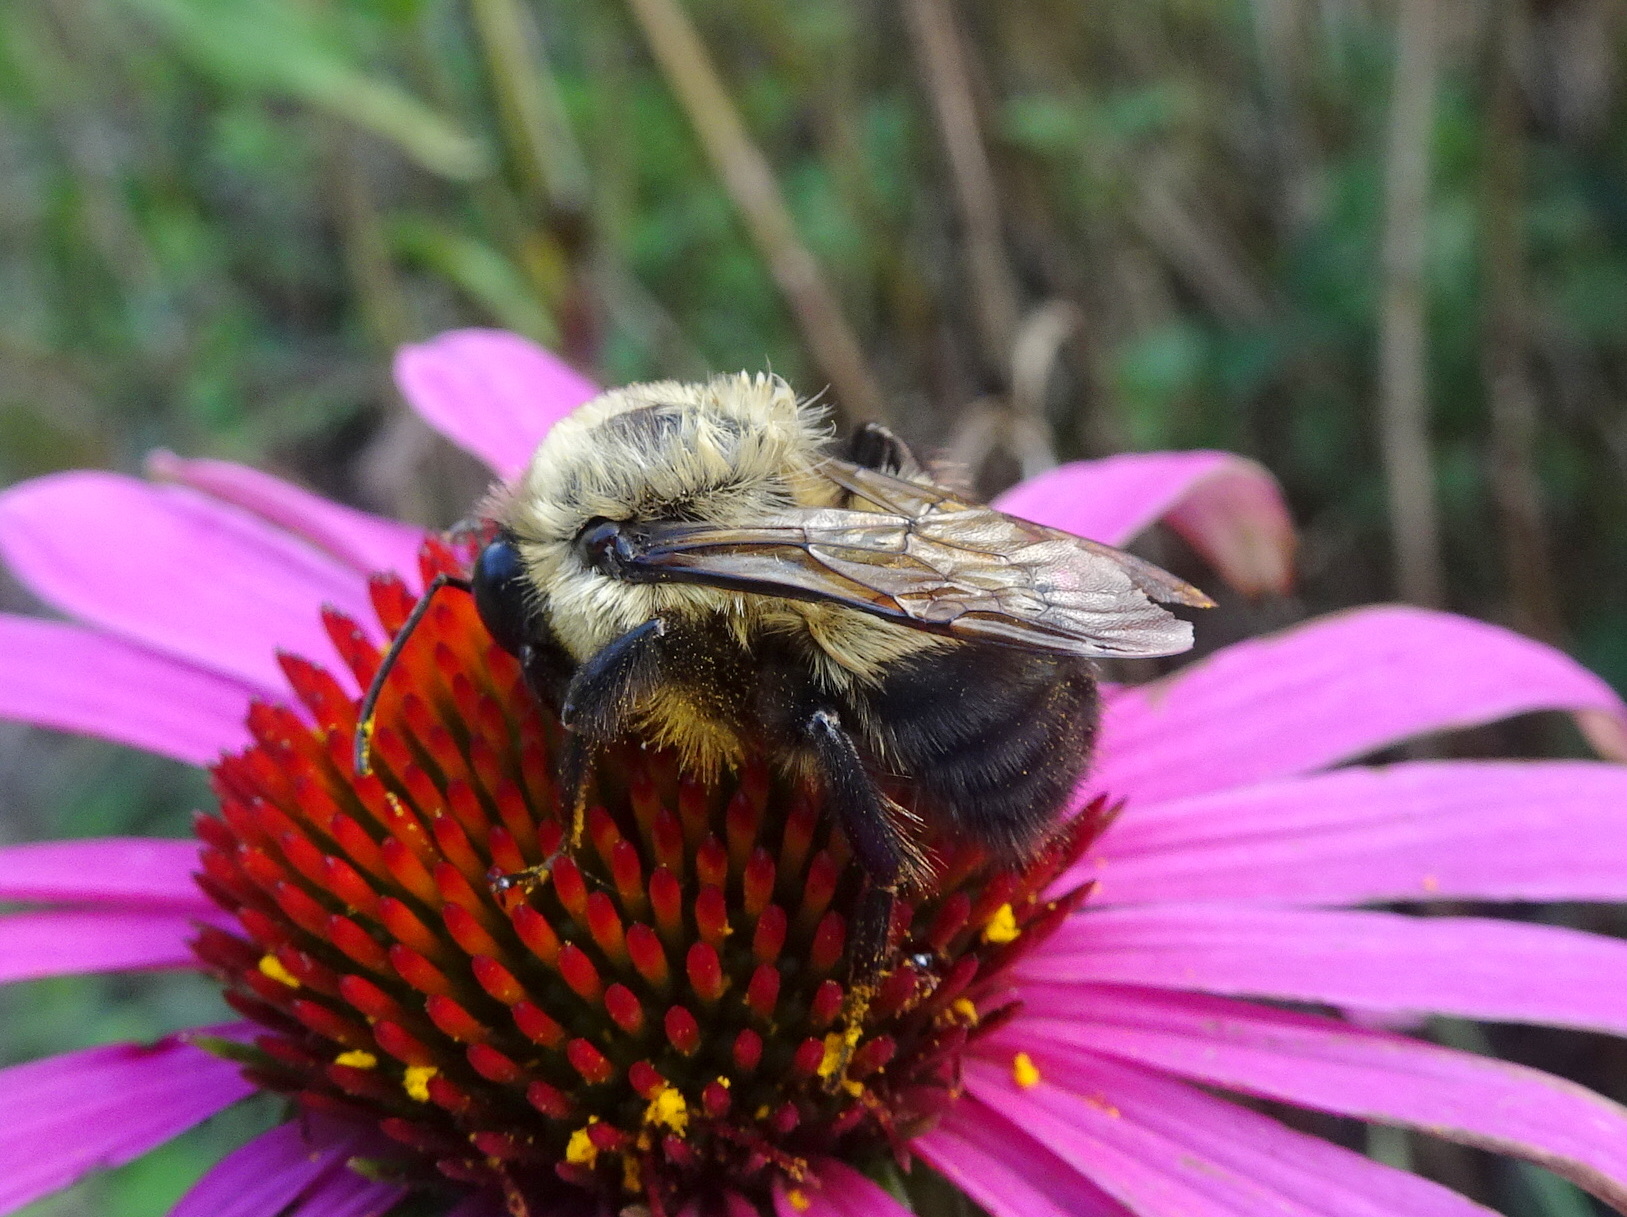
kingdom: Animalia
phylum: Arthropoda
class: Insecta
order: Hymenoptera
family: Apidae
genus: Bombus
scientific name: Bombus griseocollis
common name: Brown-belted bumble bee
